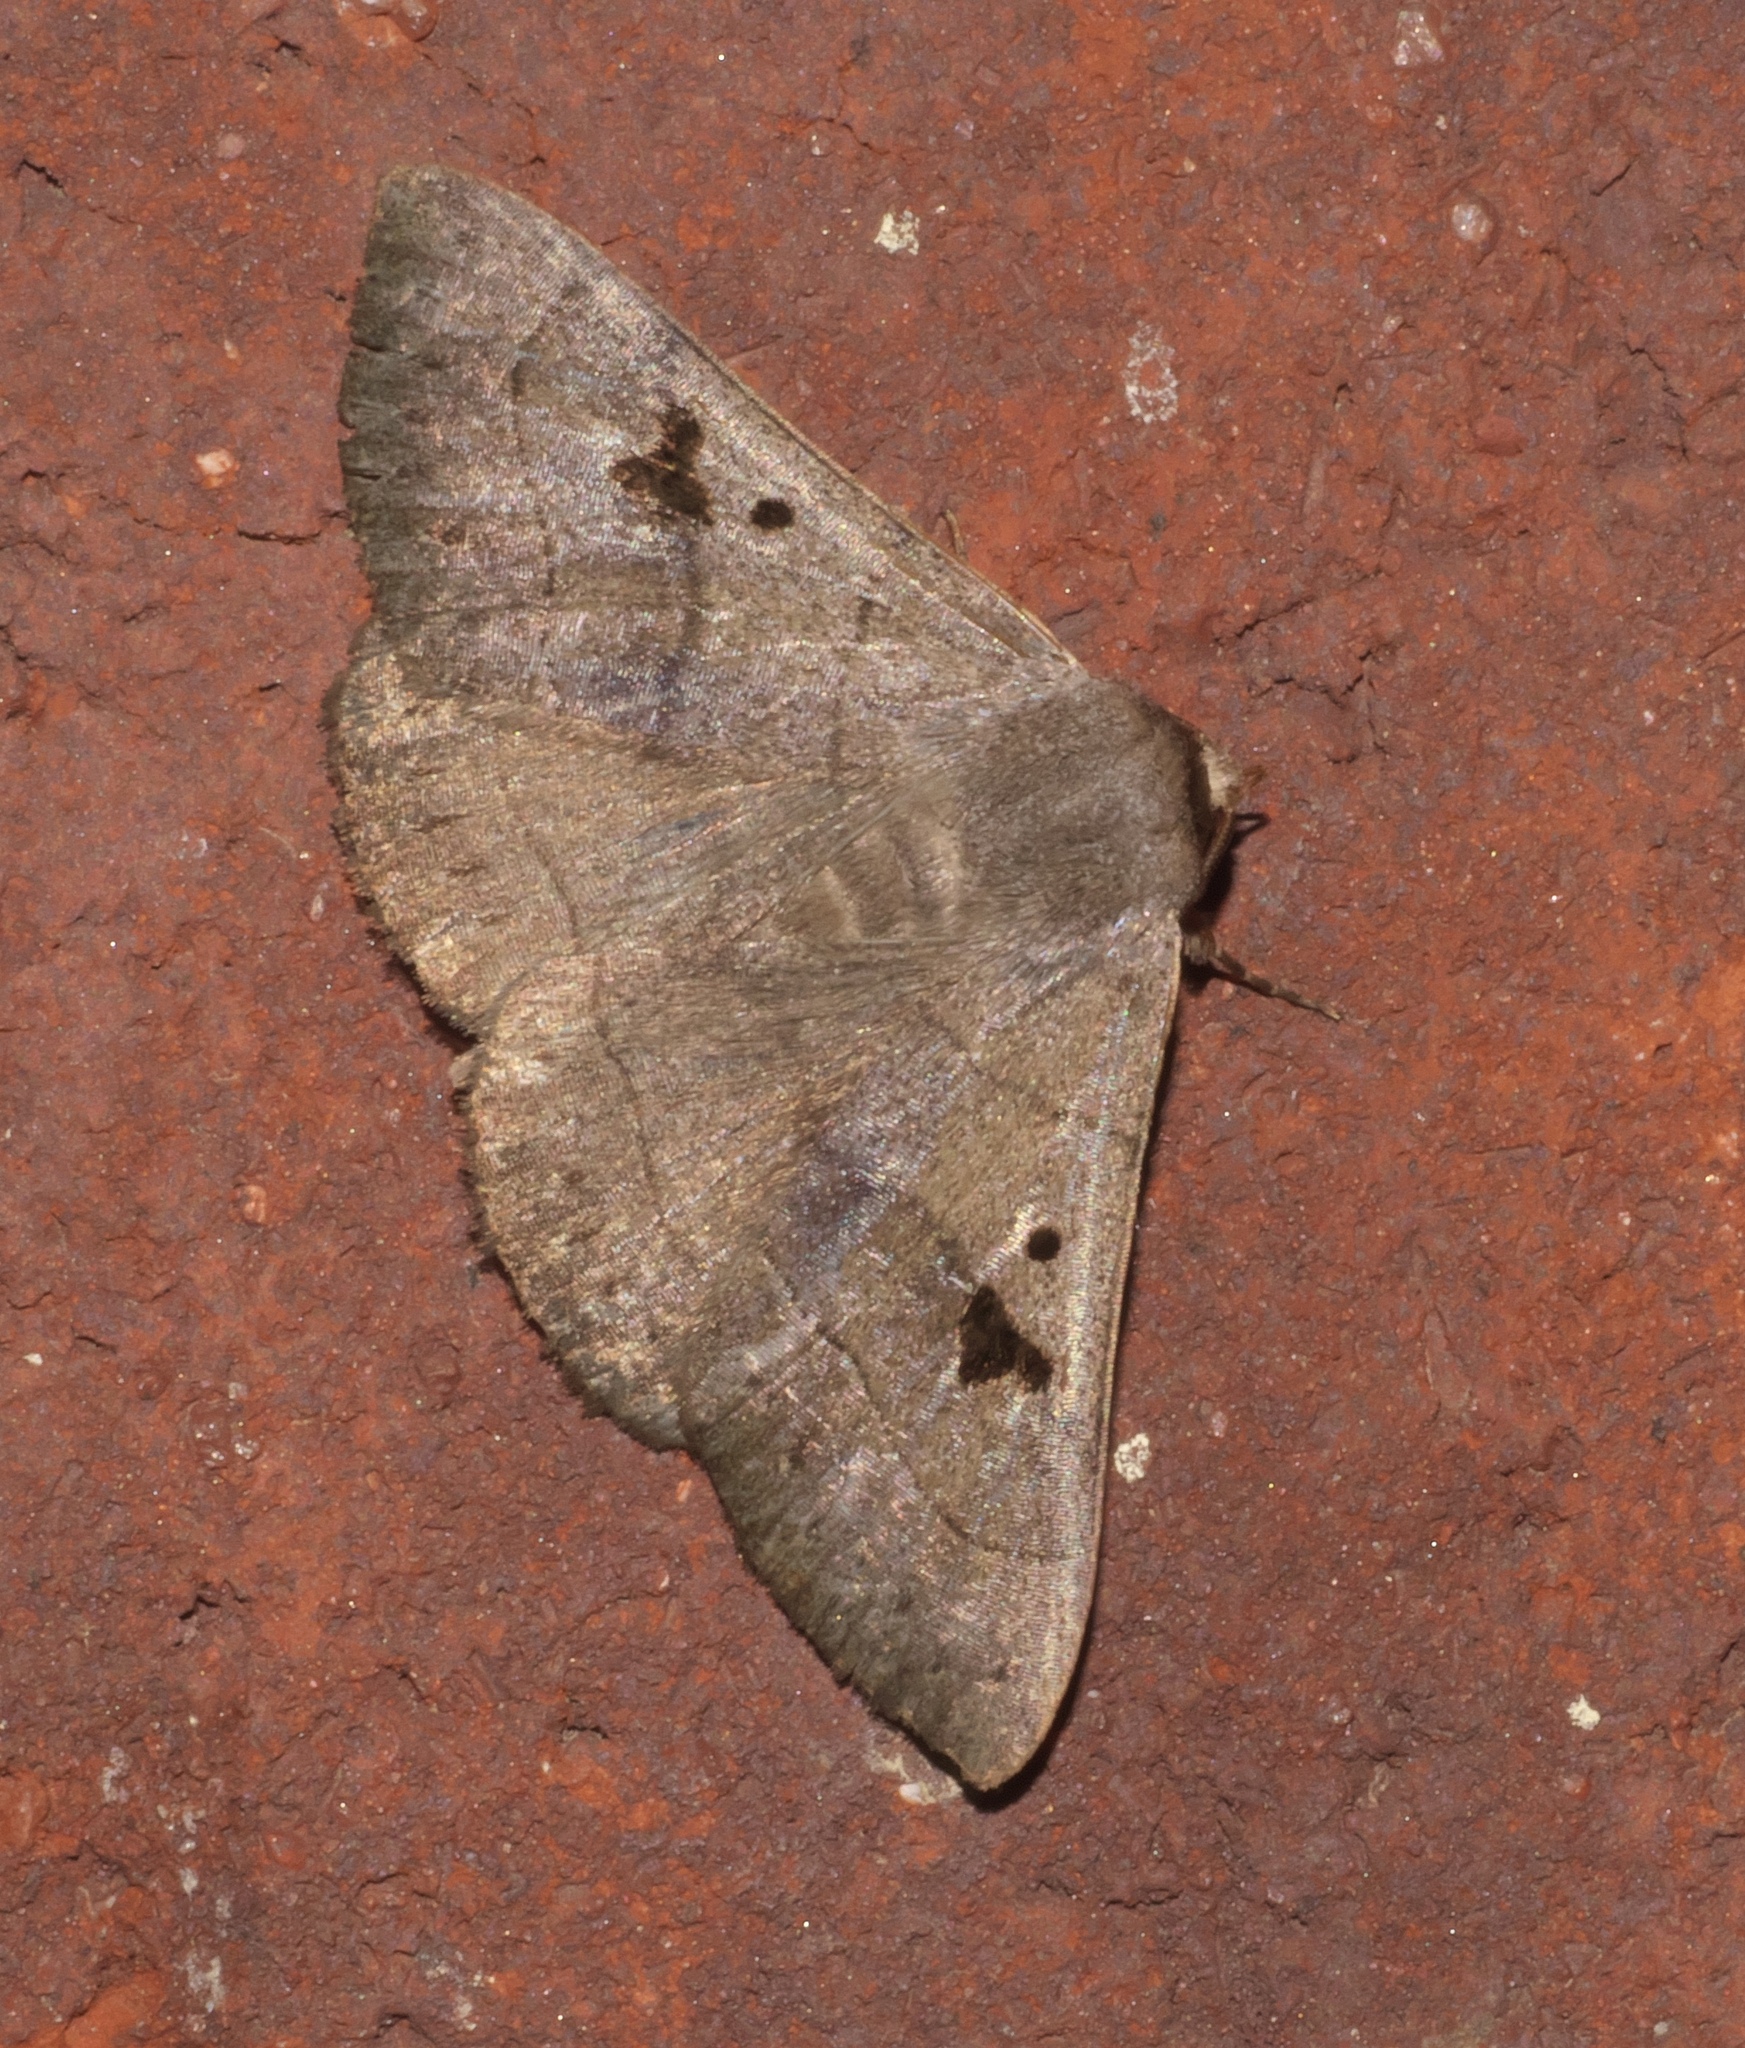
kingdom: Animalia
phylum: Arthropoda
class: Insecta
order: Lepidoptera
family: Erebidae
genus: Panopoda
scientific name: Panopoda carneicosta
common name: Brown panopoda moth
